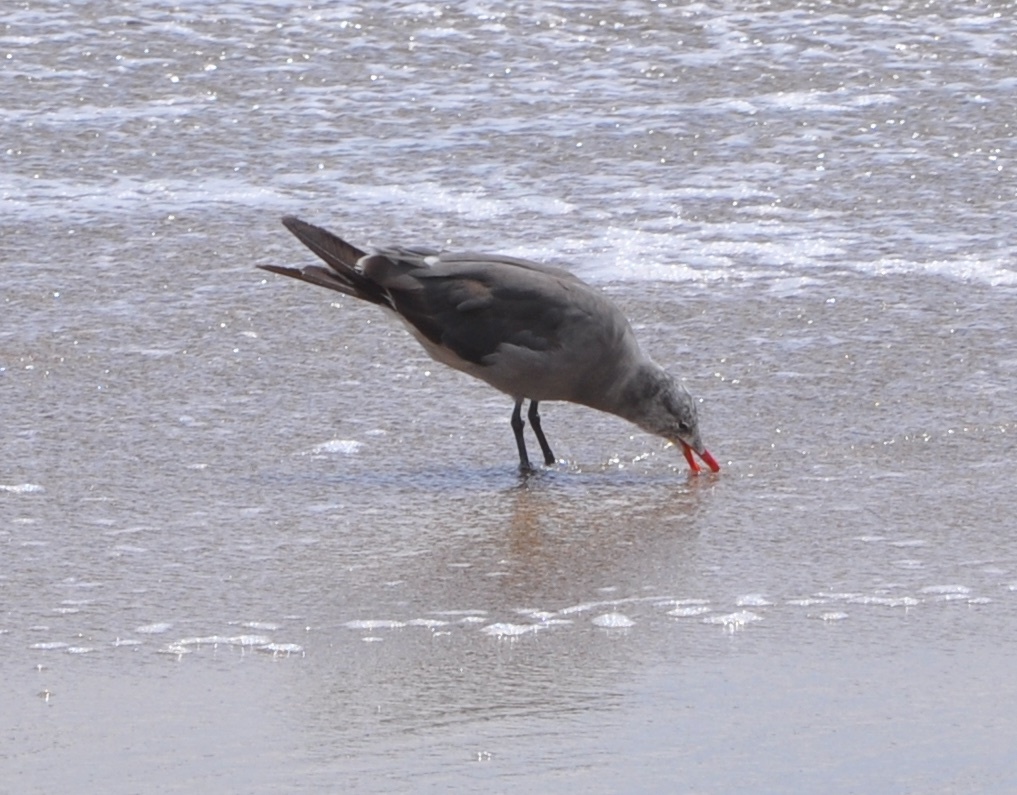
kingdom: Animalia
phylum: Chordata
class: Aves
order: Charadriiformes
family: Laridae
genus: Larus
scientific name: Larus heermanni
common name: Heermann's gull
